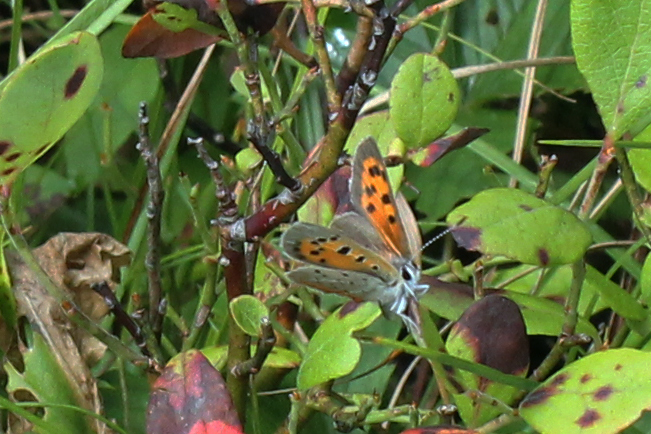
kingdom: Animalia
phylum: Arthropoda
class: Insecta
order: Lepidoptera
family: Lycaenidae
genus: Lycaena
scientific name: Lycaena hypophlaeas
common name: American copper
